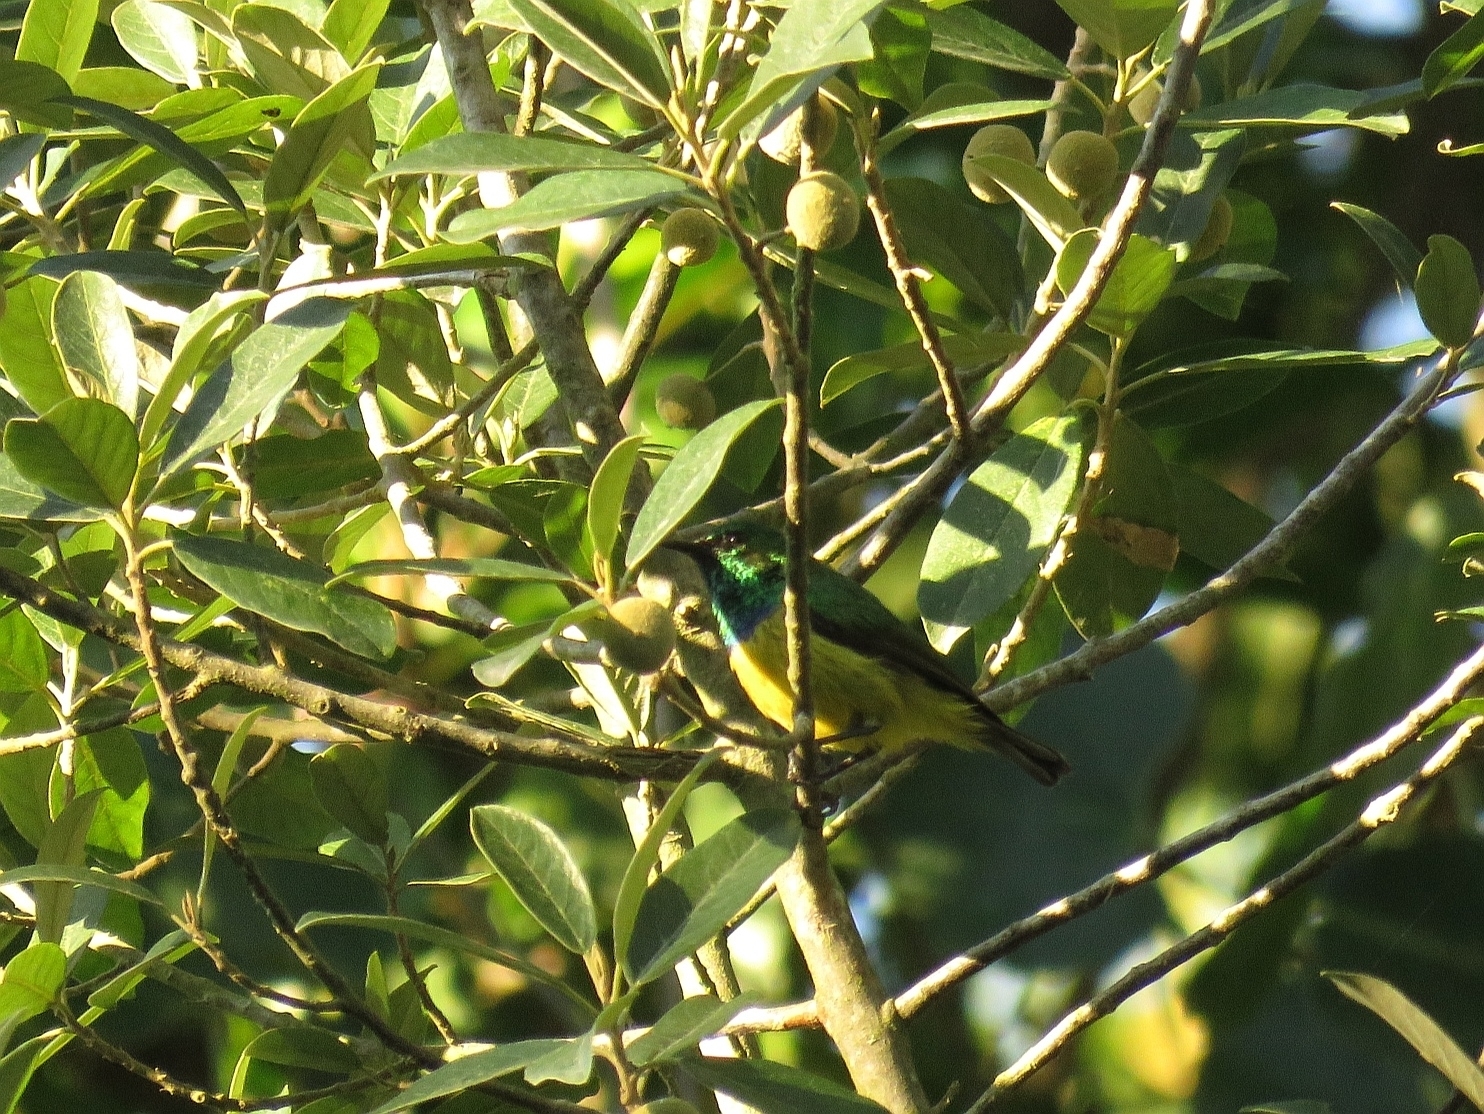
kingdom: Animalia
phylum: Chordata
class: Aves
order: Passeriformes
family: Nectariniidae
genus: Hedydipna
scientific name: Hedydipna collaris
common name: Collared sunbird
